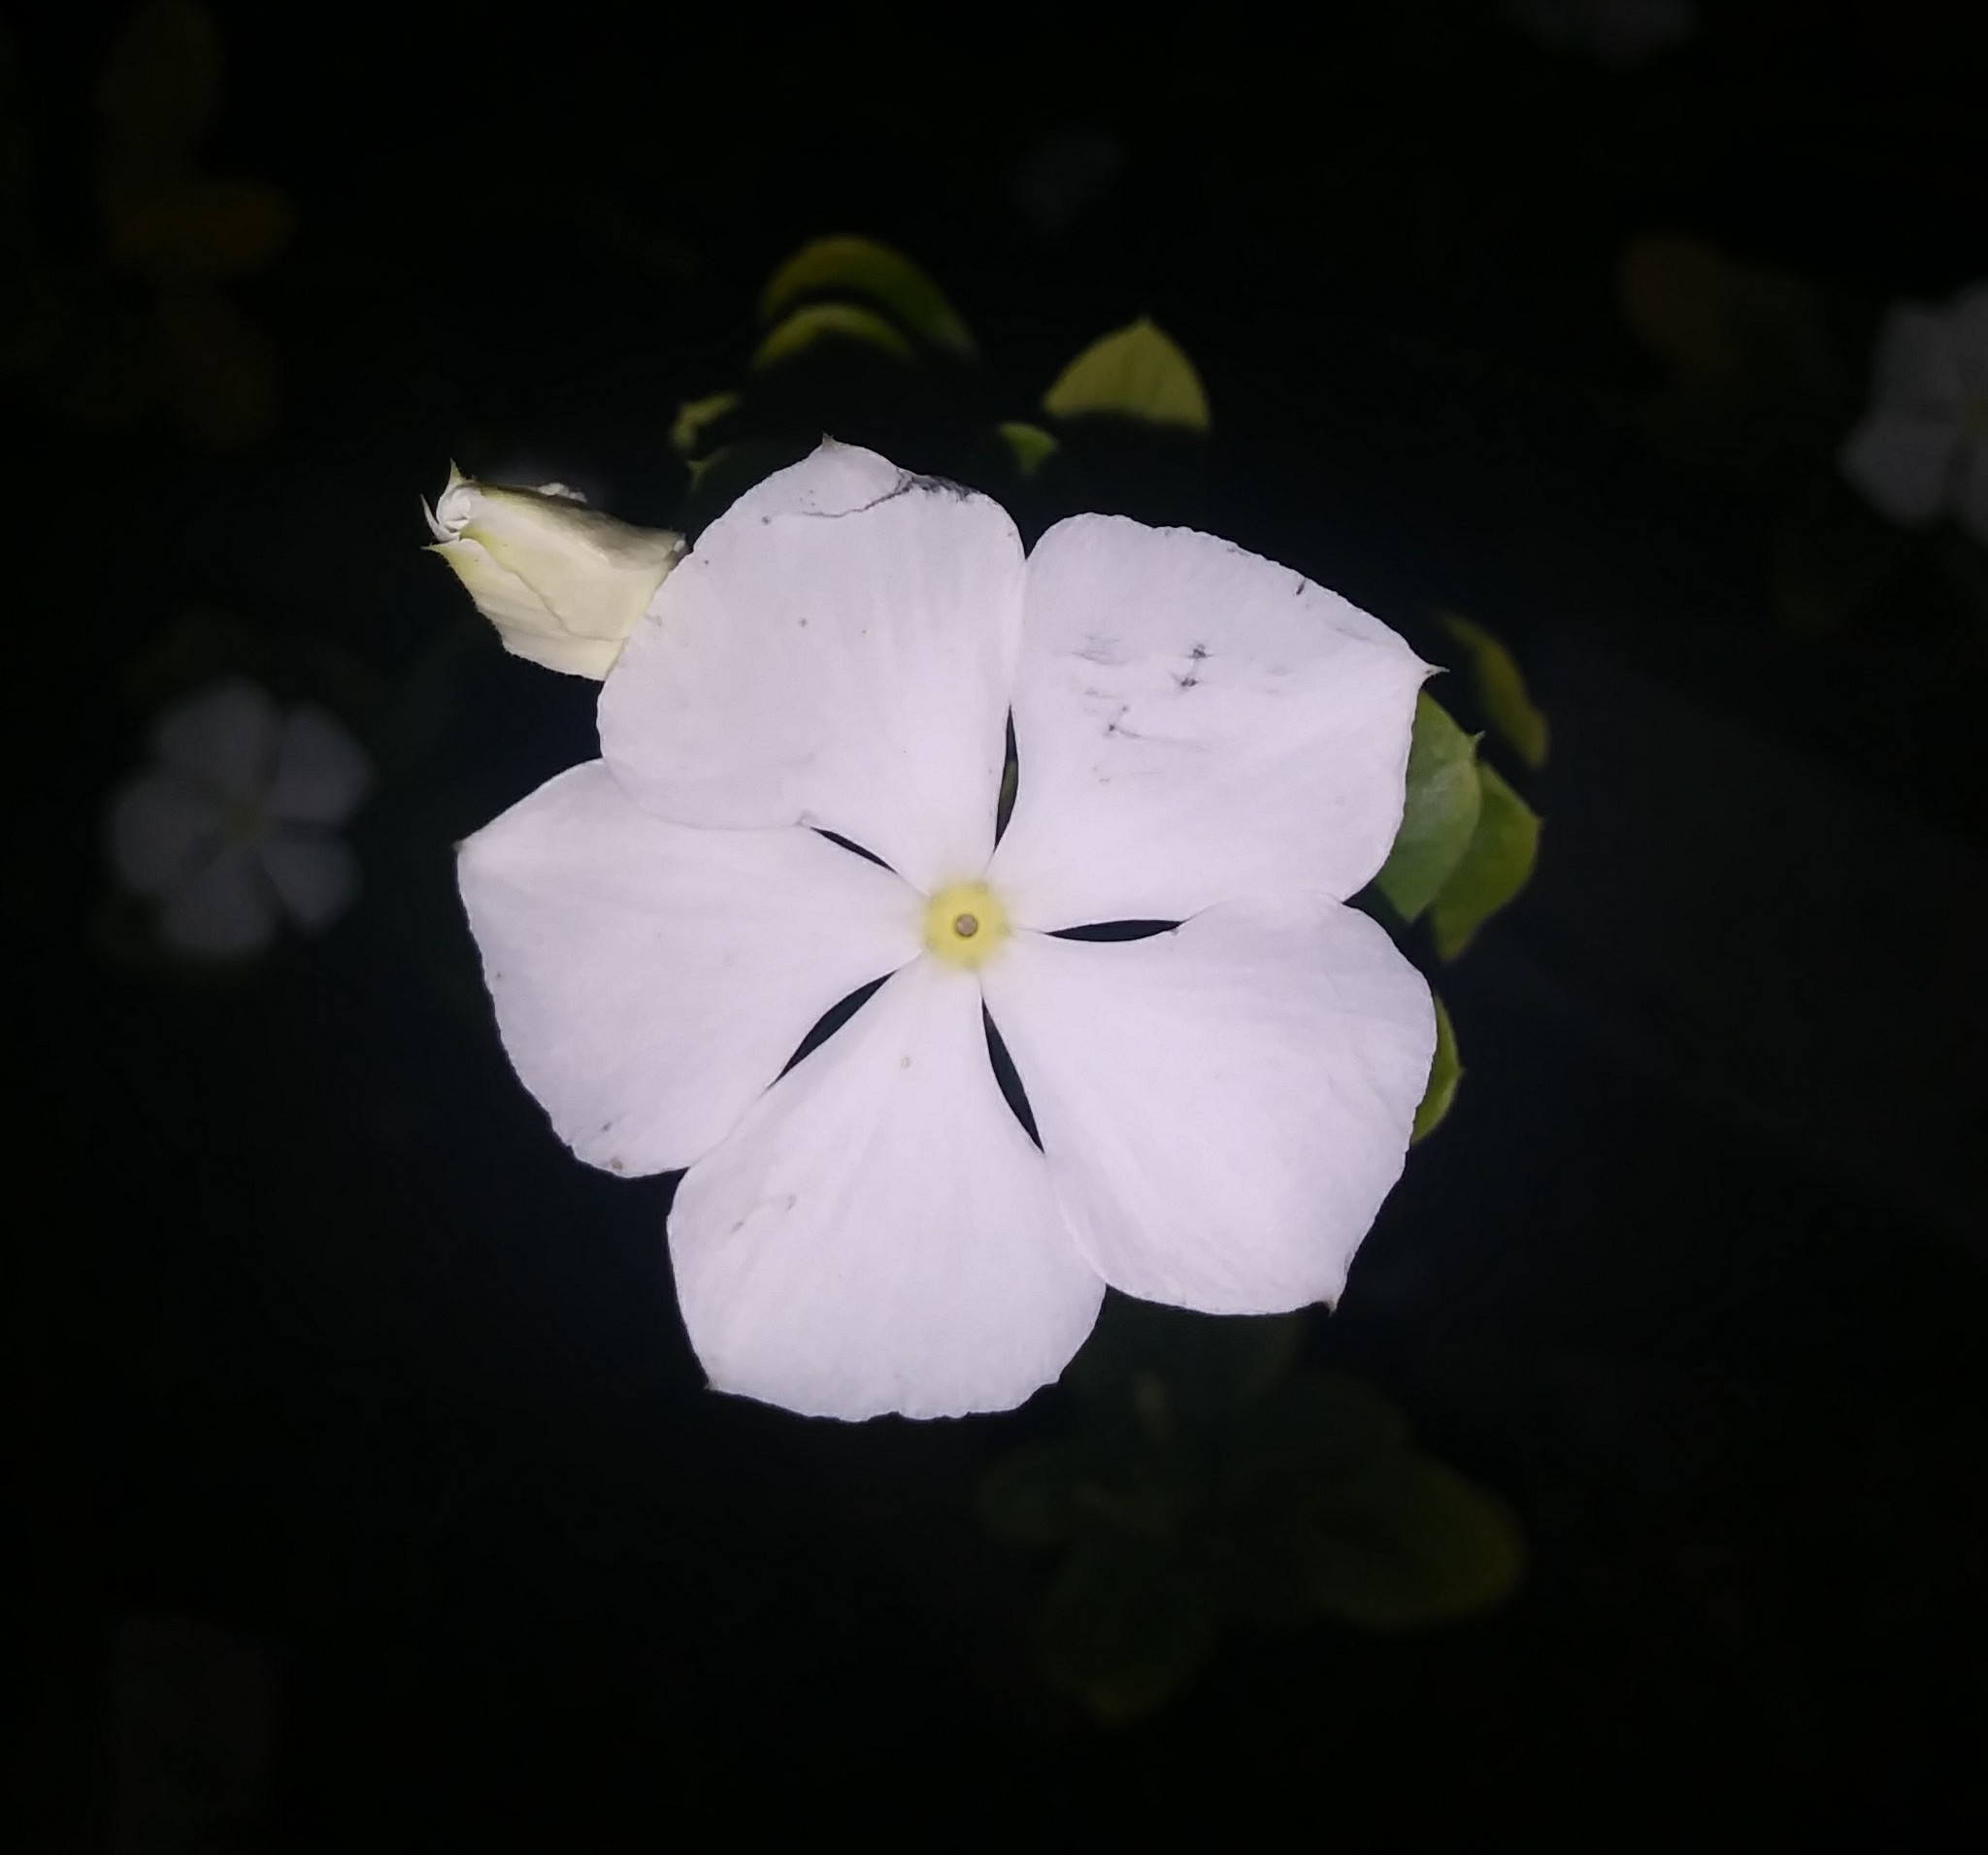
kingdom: Plantae
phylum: Tracheophyta
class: Magnoliopsida
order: Gentianales
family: Apocynaceae
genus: Catharanthus
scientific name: Catharanthus roseus
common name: Madagascar periwinkle
